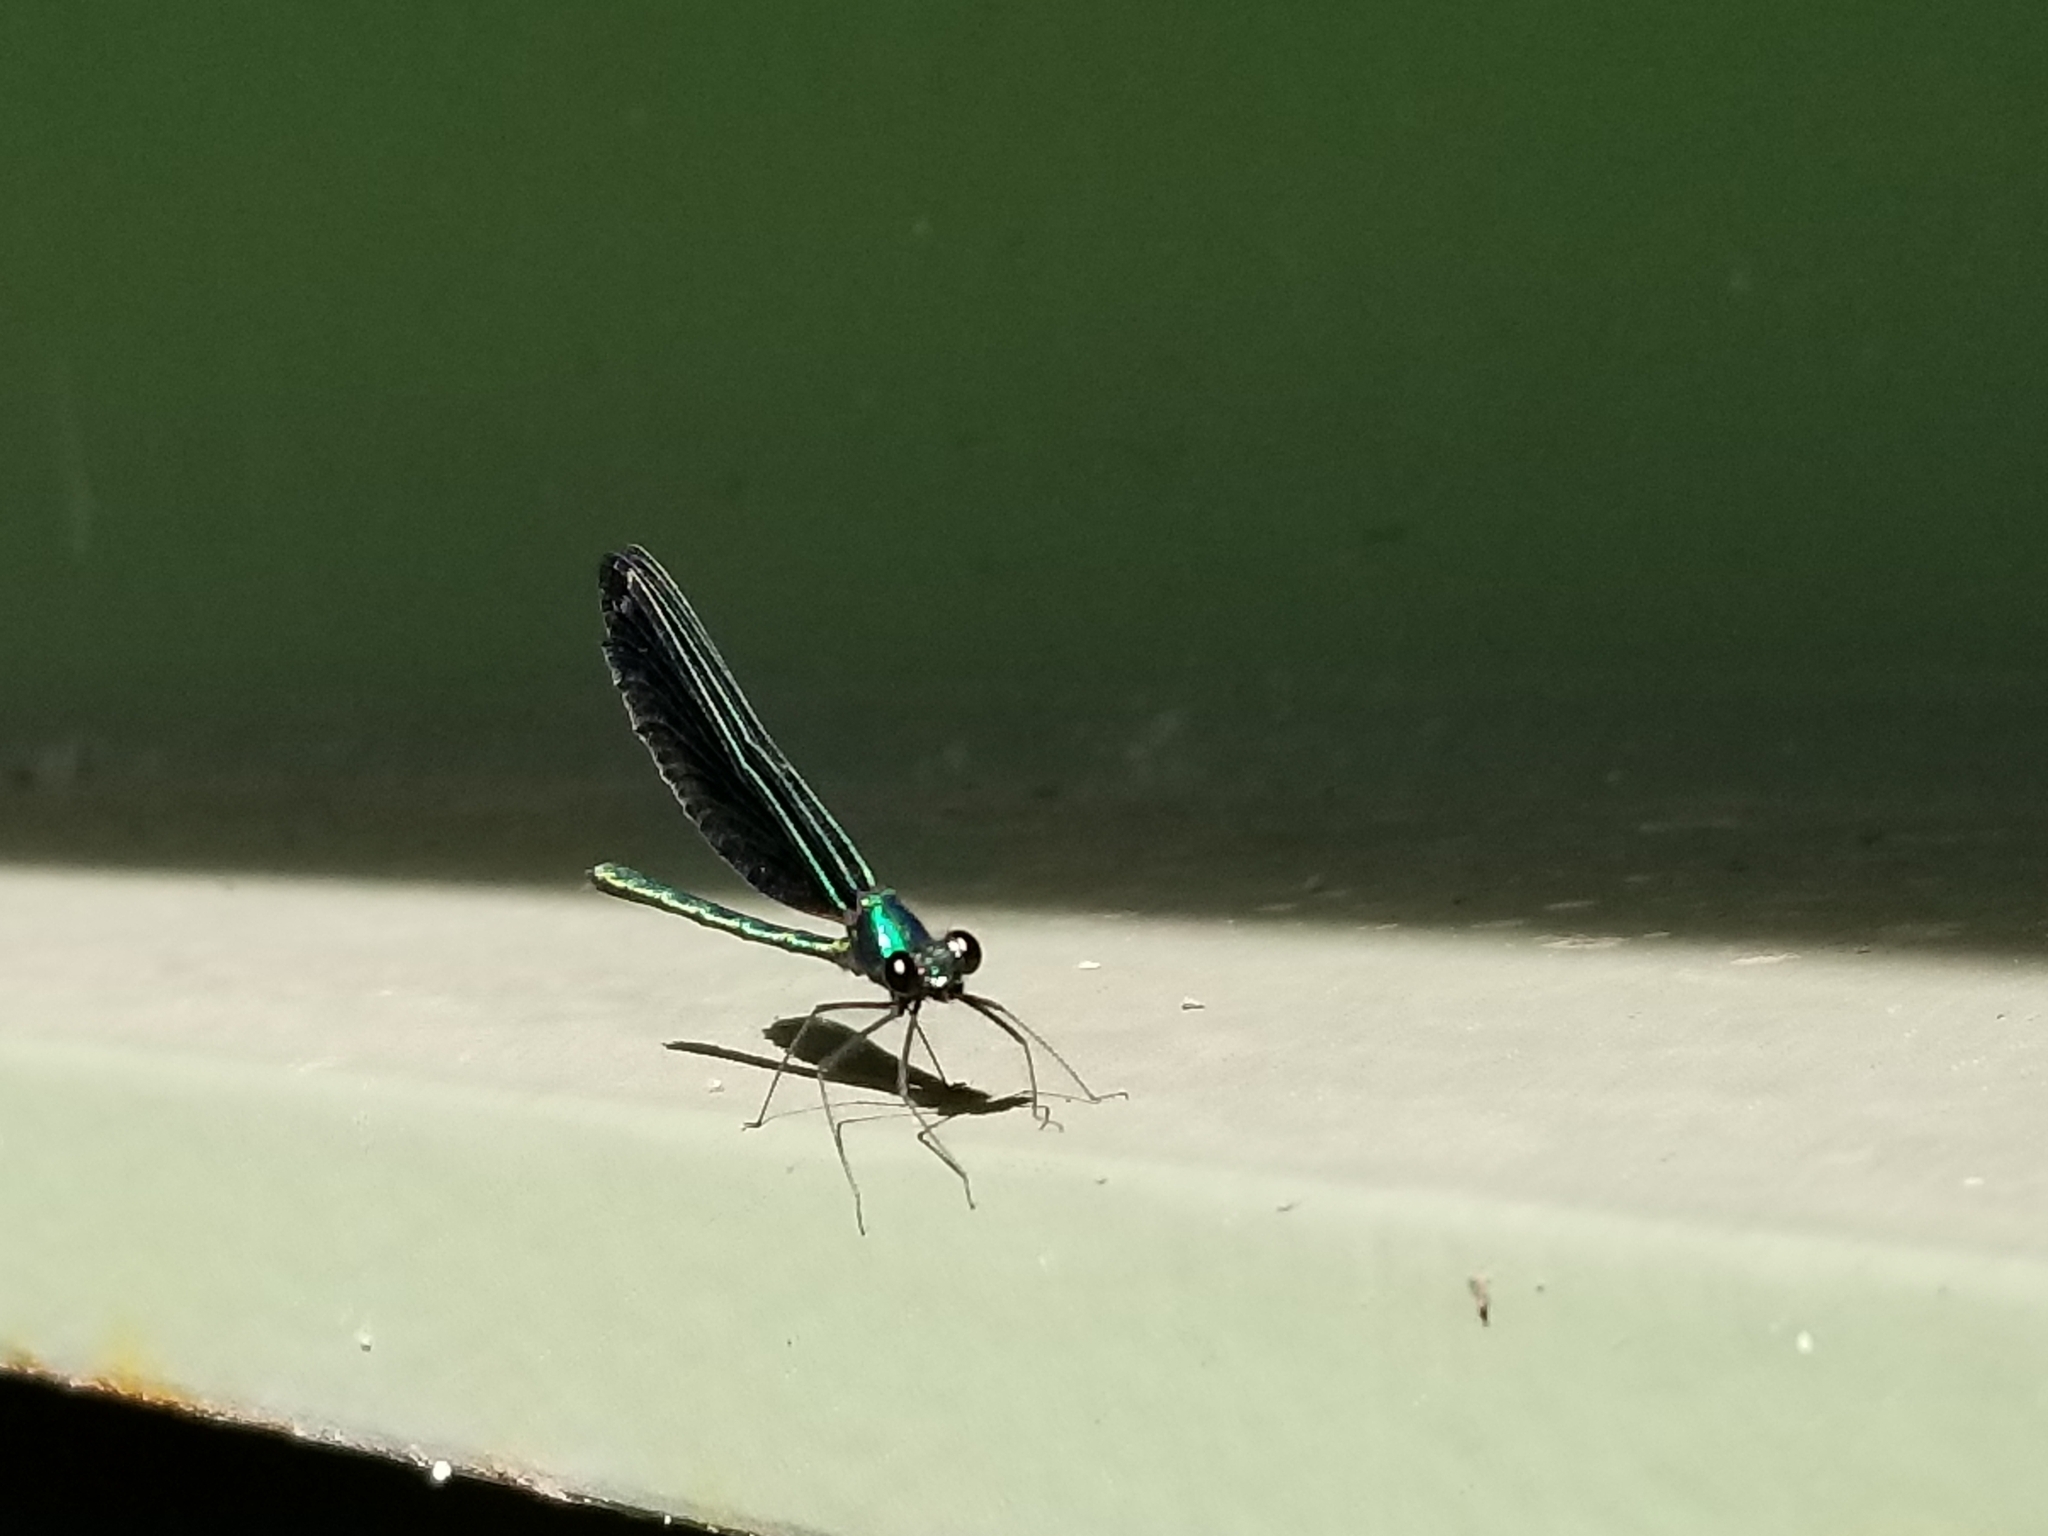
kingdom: Animalia
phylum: Arthropoda
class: Insecta
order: Odonata
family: Calopterygidae
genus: Calopteryx
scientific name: Calopteryx maculata
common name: Ebony jewelwing
